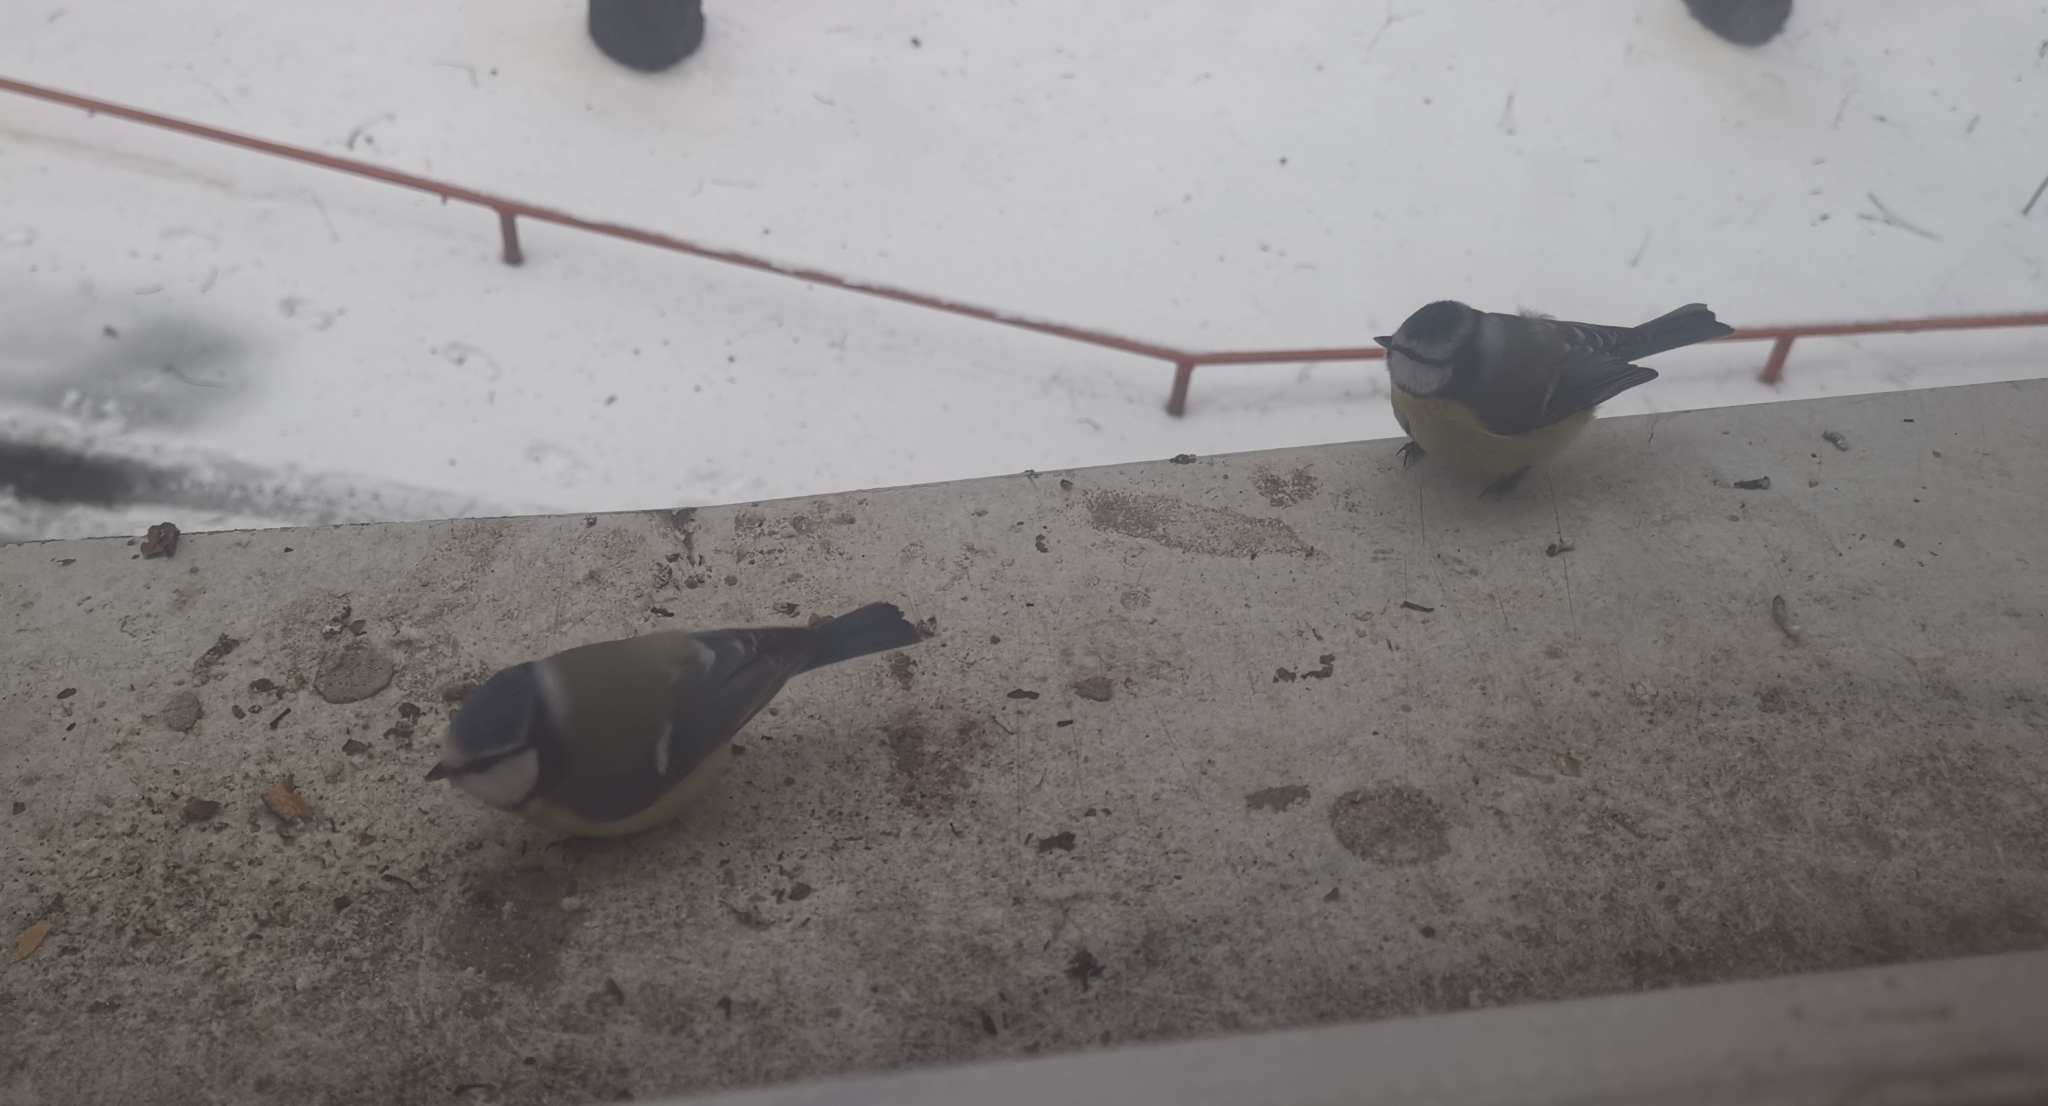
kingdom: Animalia
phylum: Chordata
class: Aves
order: Passeriformes
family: Paridae
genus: Cyanistes
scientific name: Cyanistes caeruleus
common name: Eurasian blue tit
